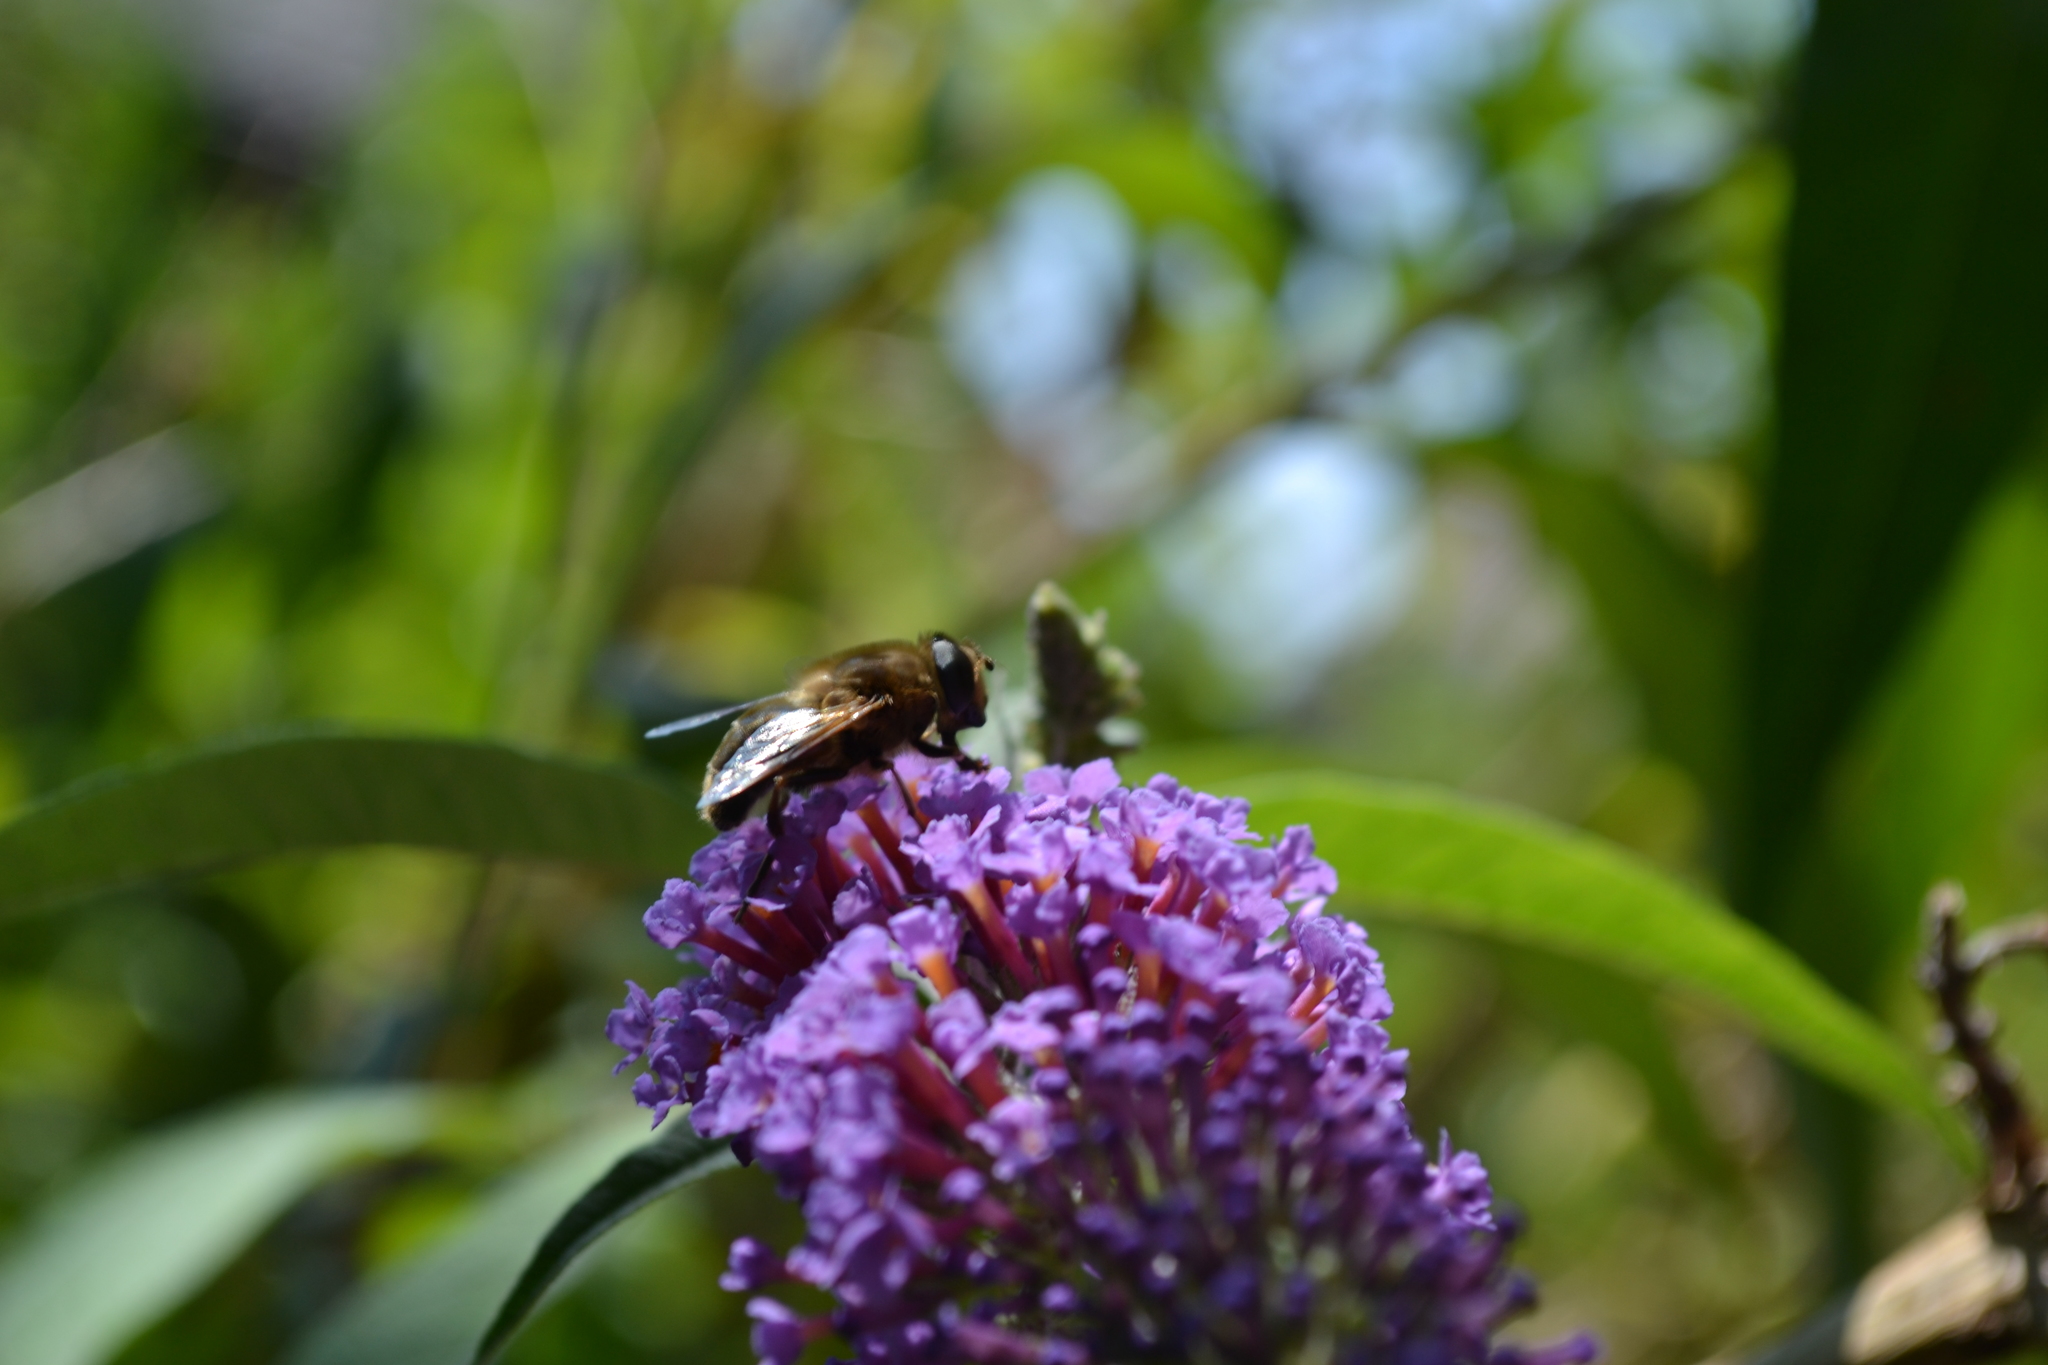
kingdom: Animalia
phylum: Arthropoda
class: Insecta
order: Diptera
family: Syrphidae
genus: Eristalis
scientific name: Eristalis tenax
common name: Drone fly
